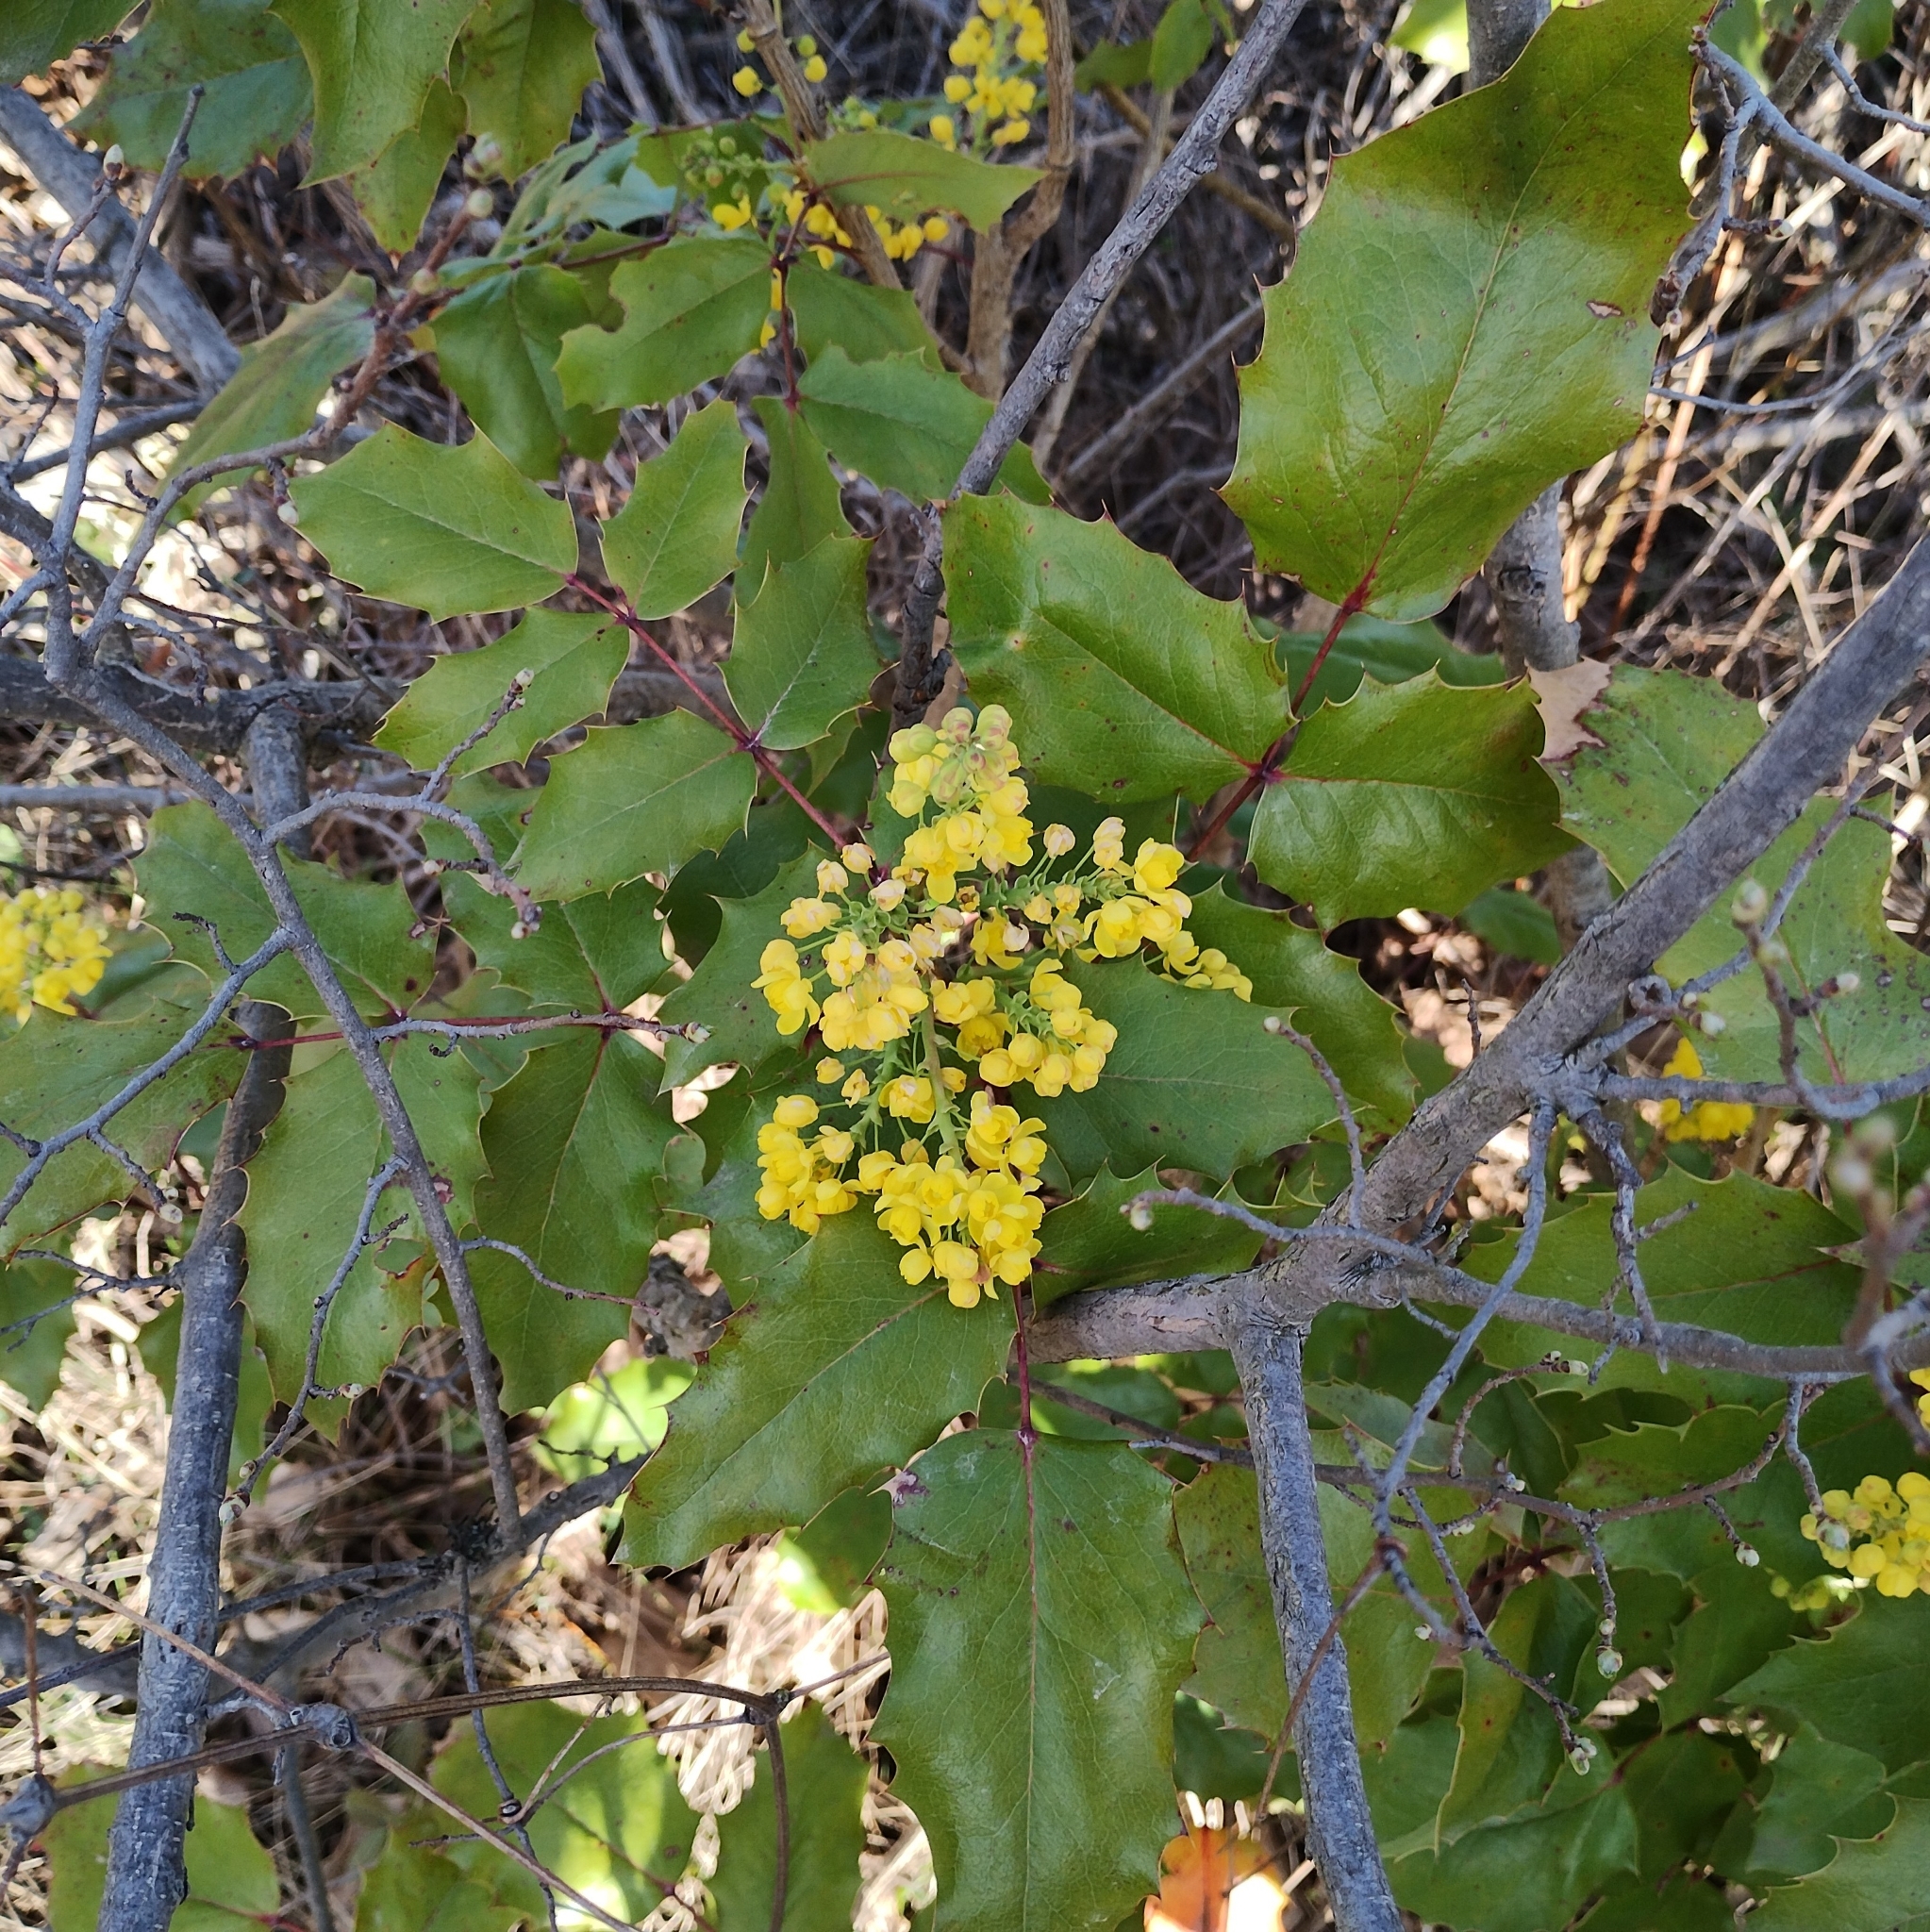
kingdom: Plantae
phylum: Tracheophyta
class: Magnoliopsida
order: Ranunculales
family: Berberidaceae
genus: Mahonia
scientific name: Mahonia aquifolium
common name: Oregon-grape
